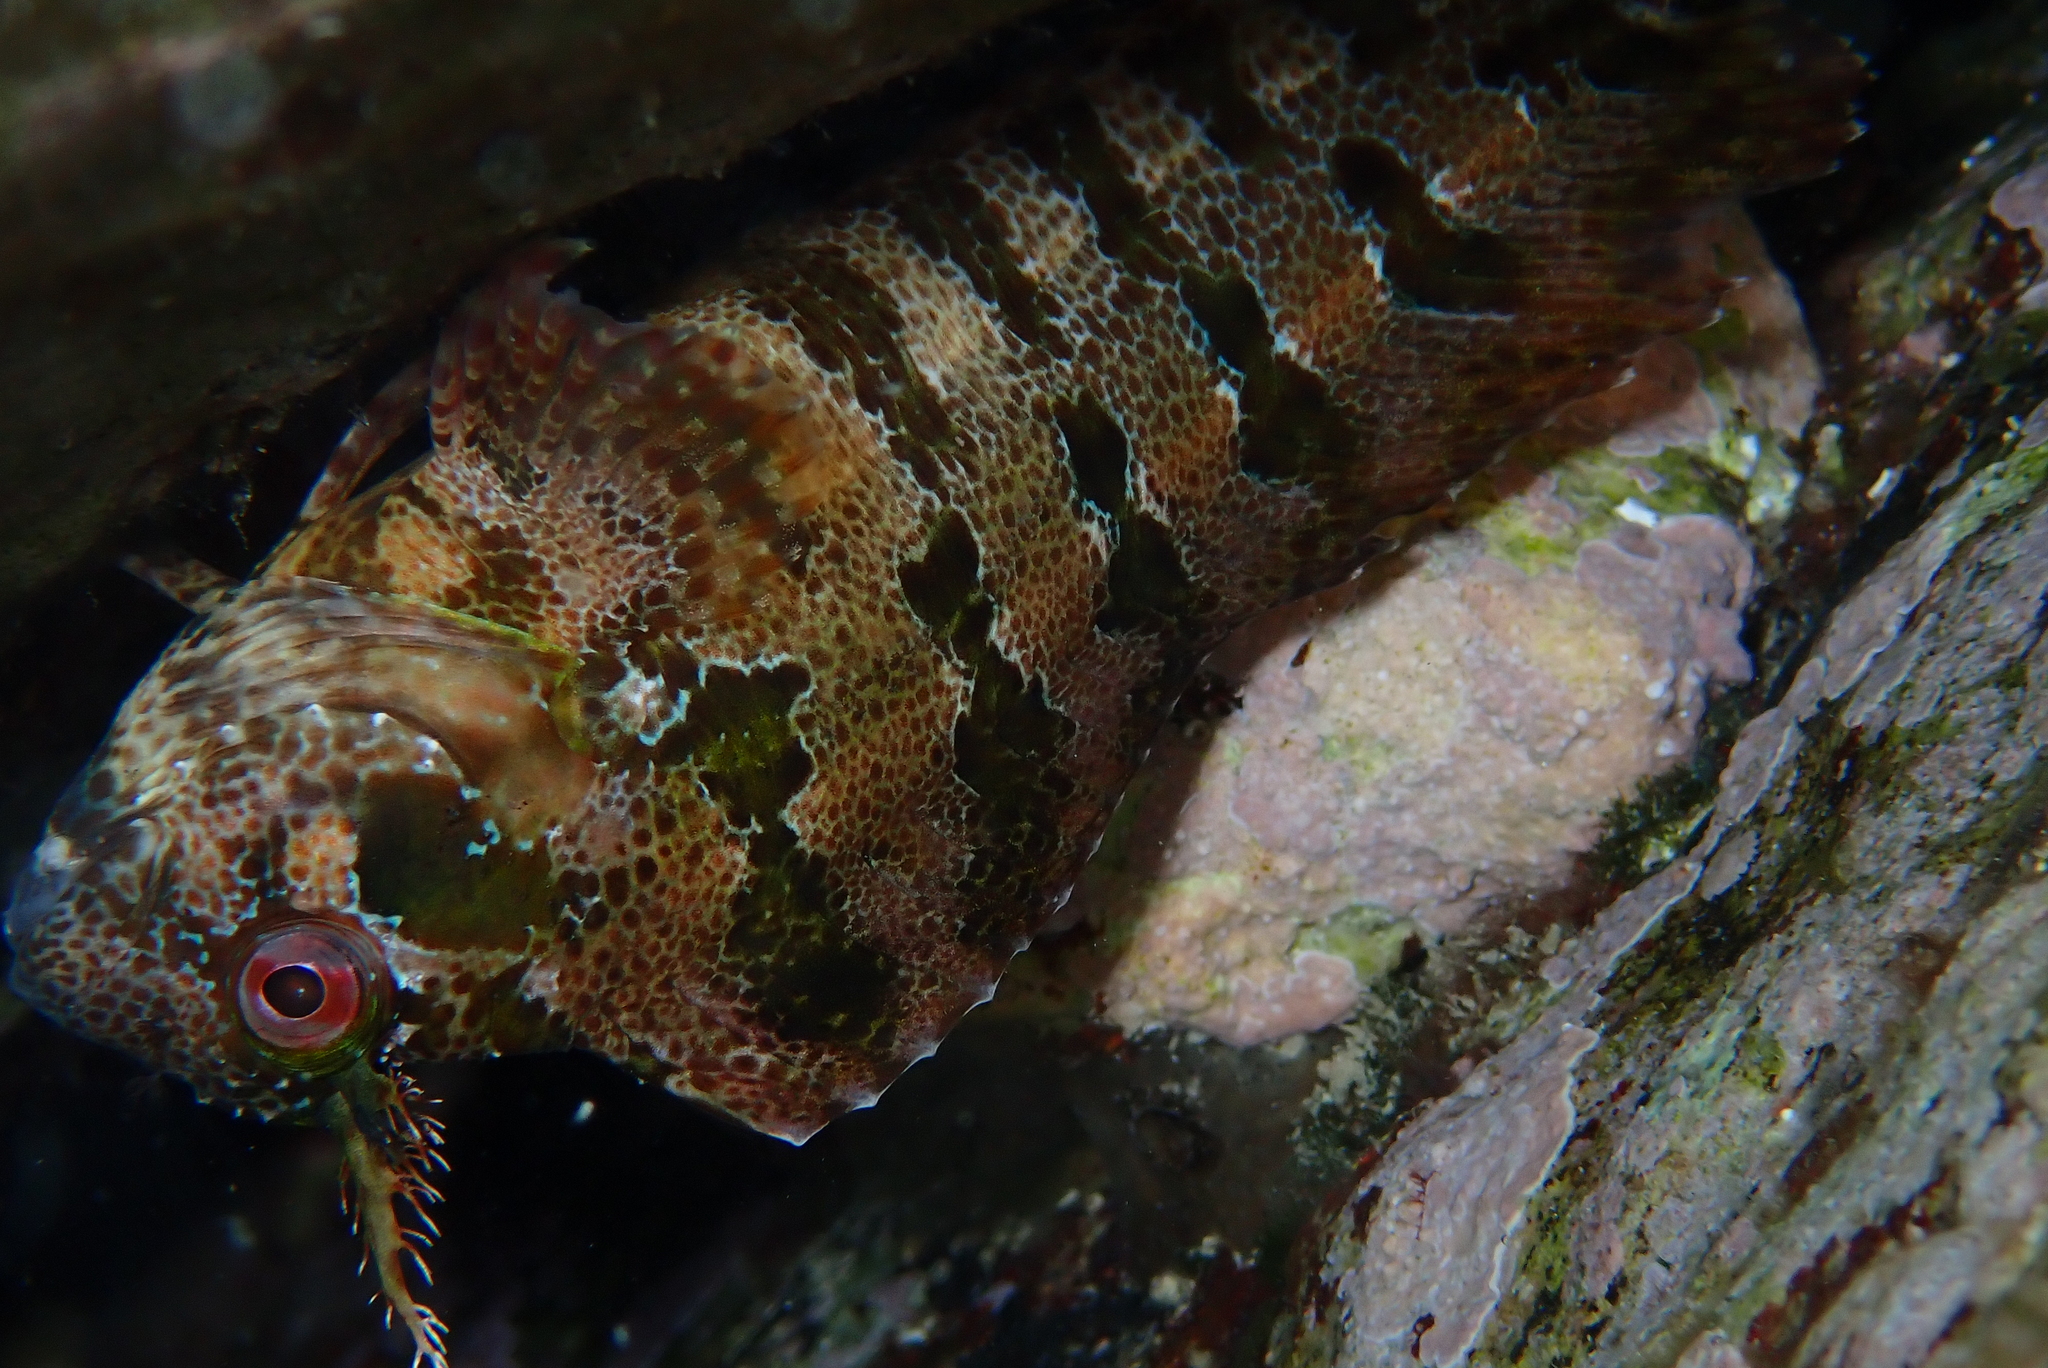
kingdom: Animalia
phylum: Chordata
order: Perciformes
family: Blenniidae
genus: Parablennius
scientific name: Parablennius gattorugine
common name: Tompot blenny
